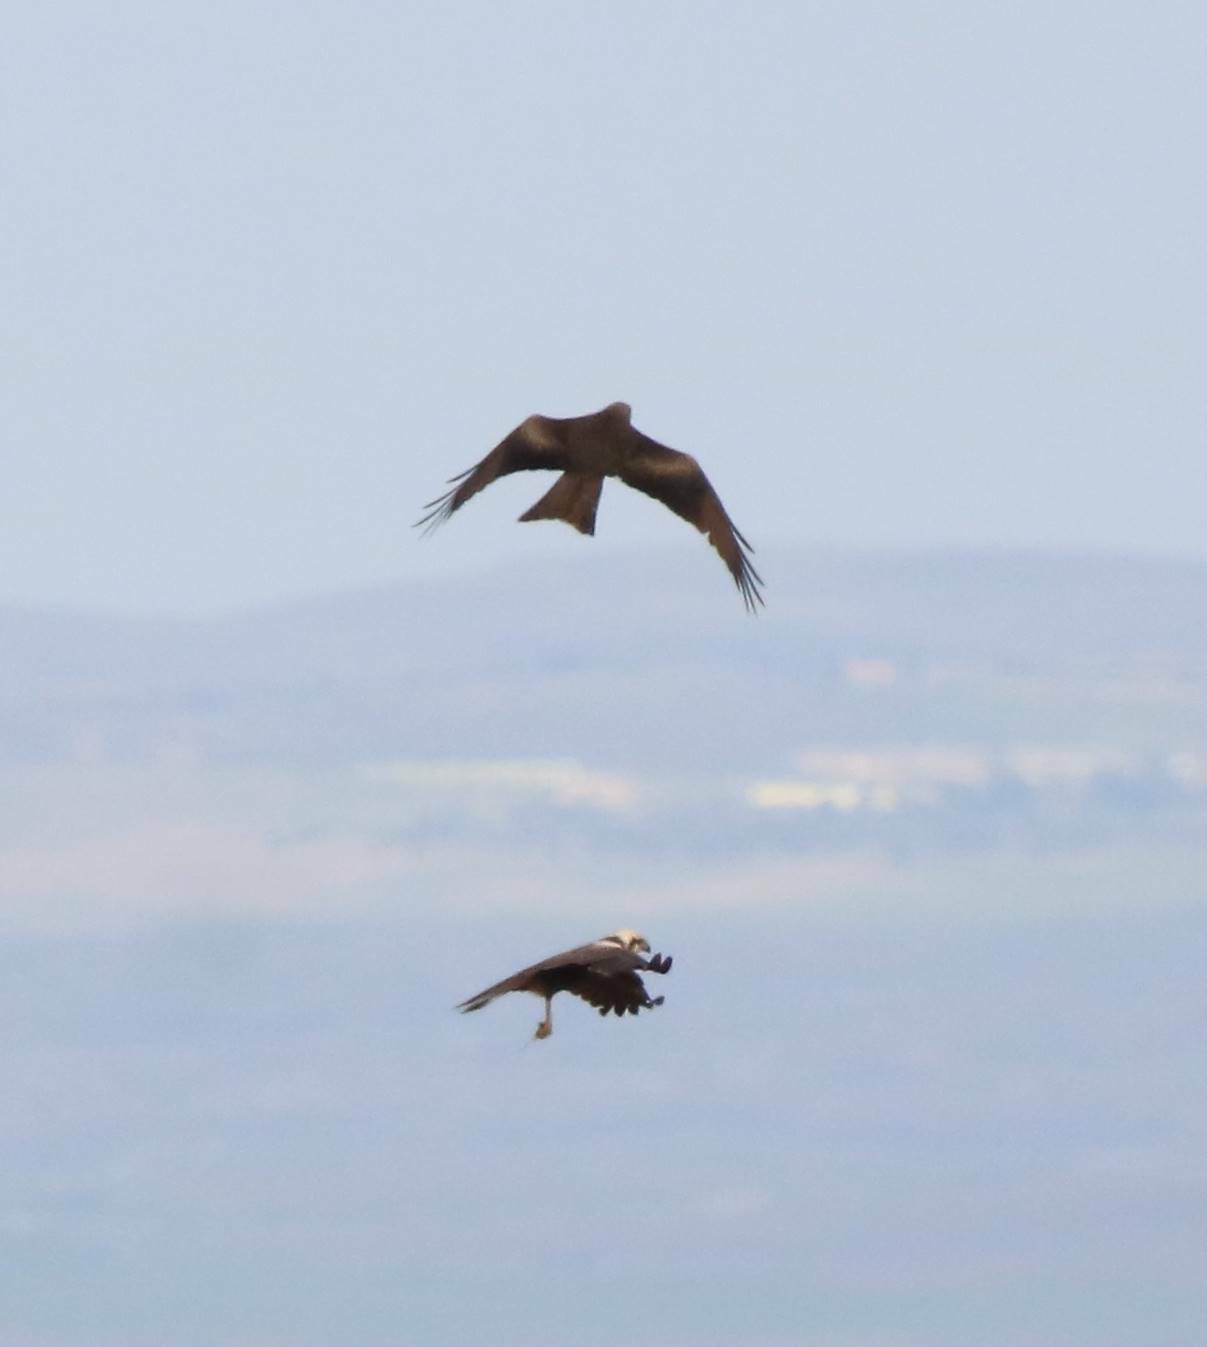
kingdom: Animalia
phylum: Chordata
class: Aves
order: Accipitriformes
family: Accipitridae
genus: Milvus
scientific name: Milvus migrans
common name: Black kite
